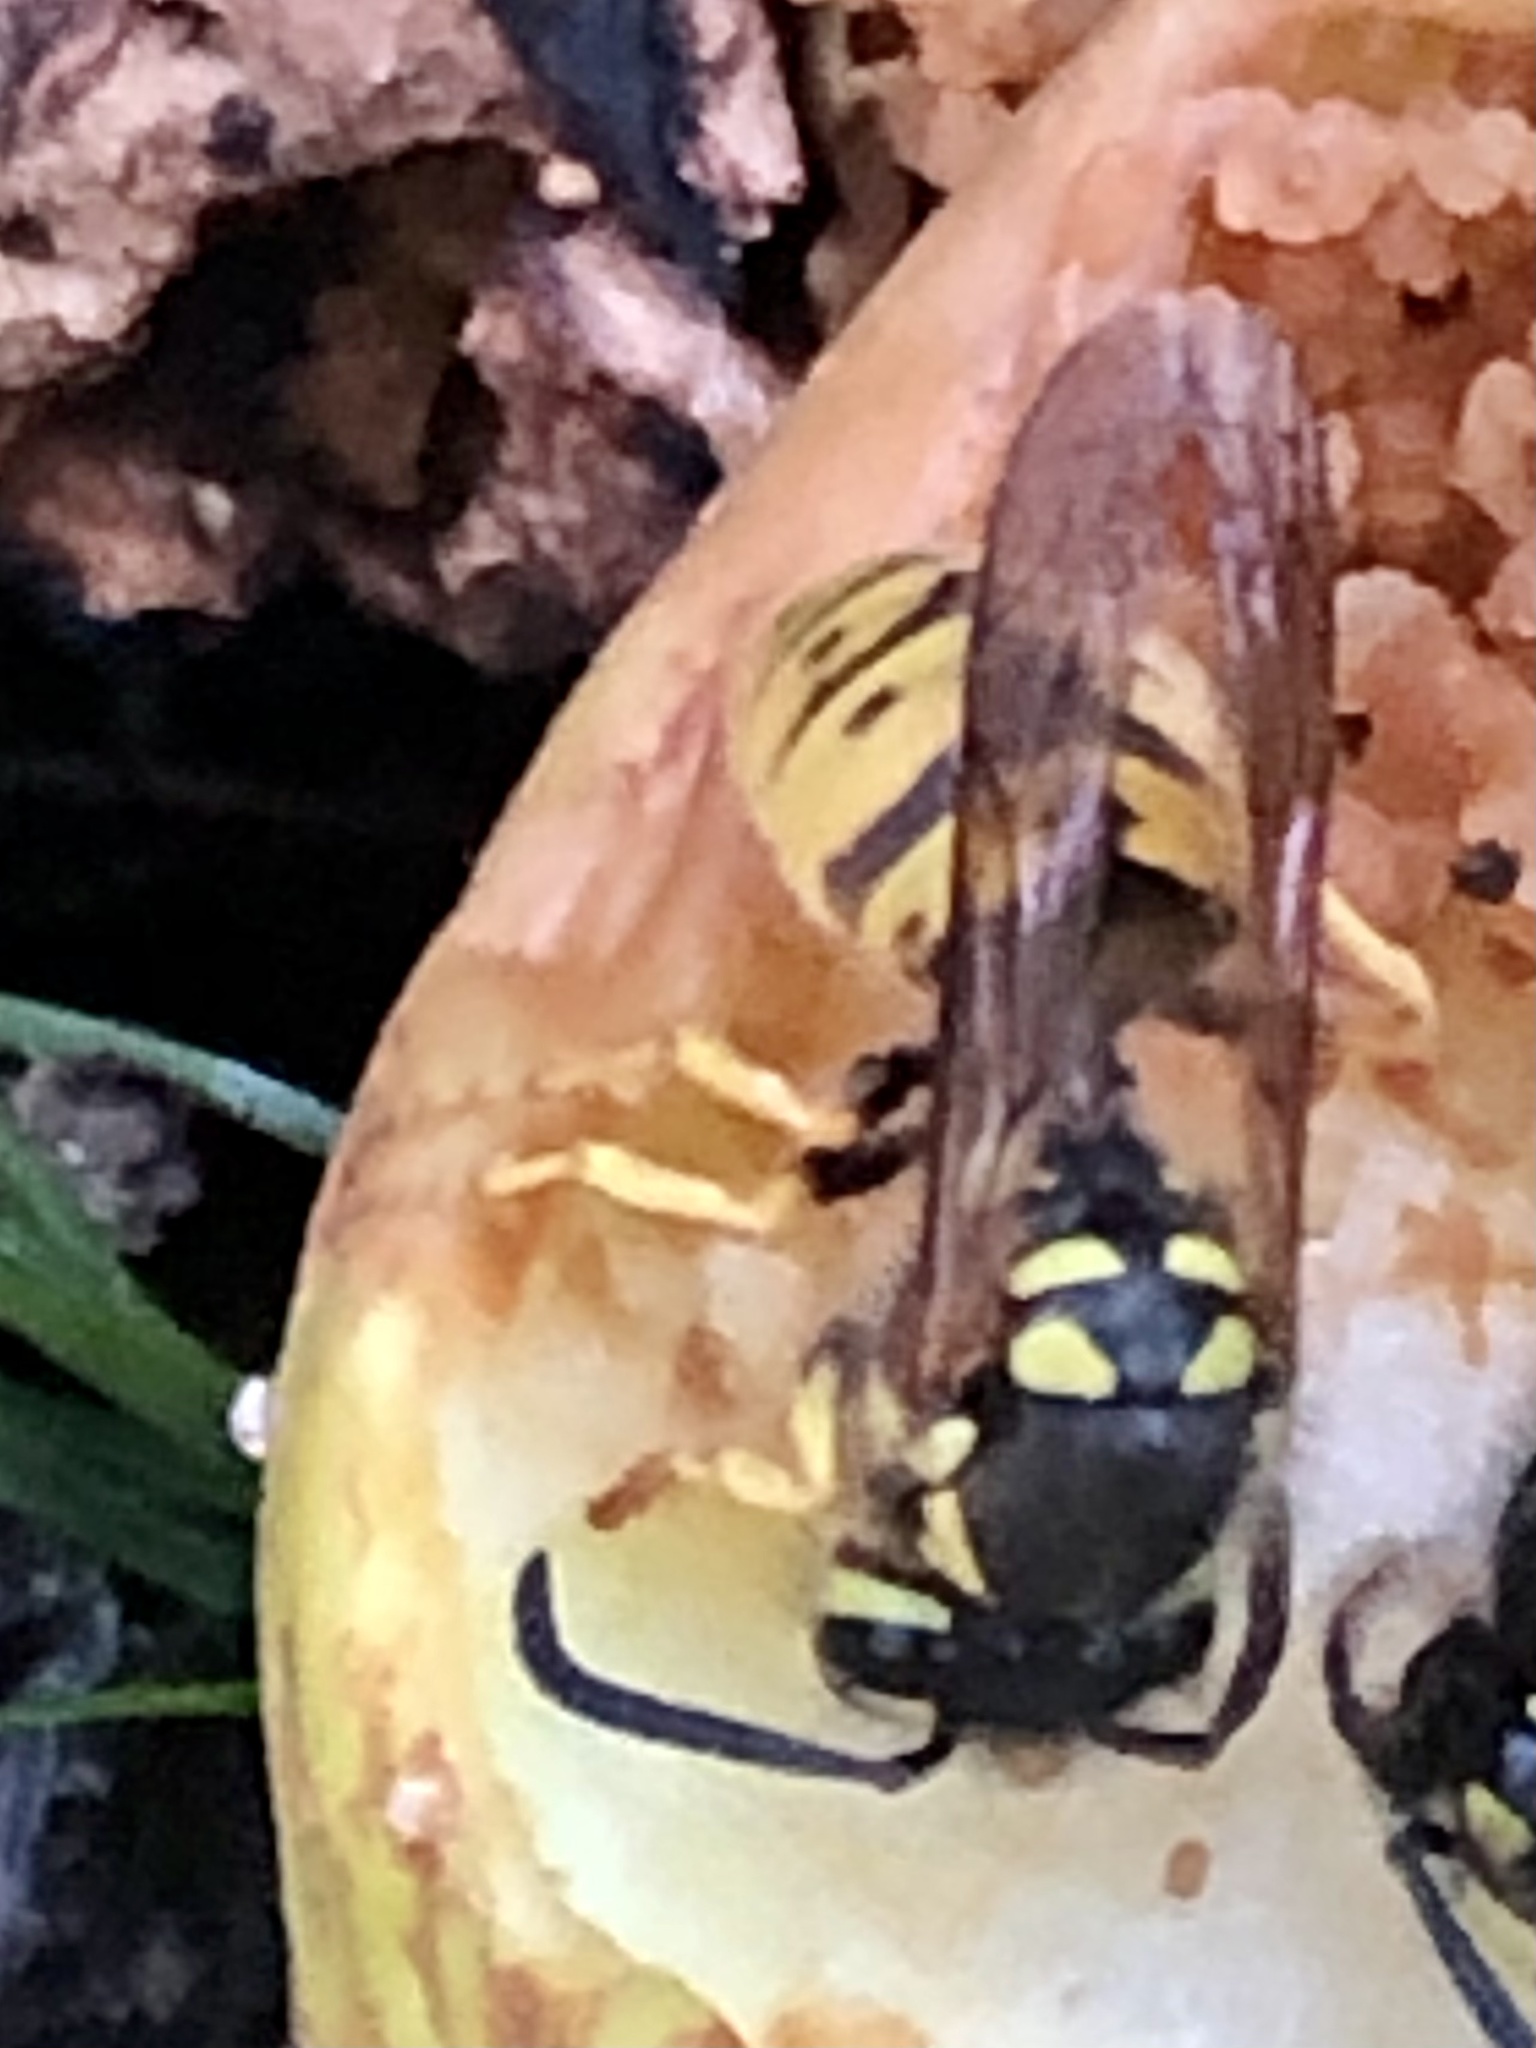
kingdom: Animalia
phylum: Arthropoda
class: Insecta
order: Hymenoptera
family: Vespidae
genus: Vespula
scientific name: Vespula germanica
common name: German wasp
